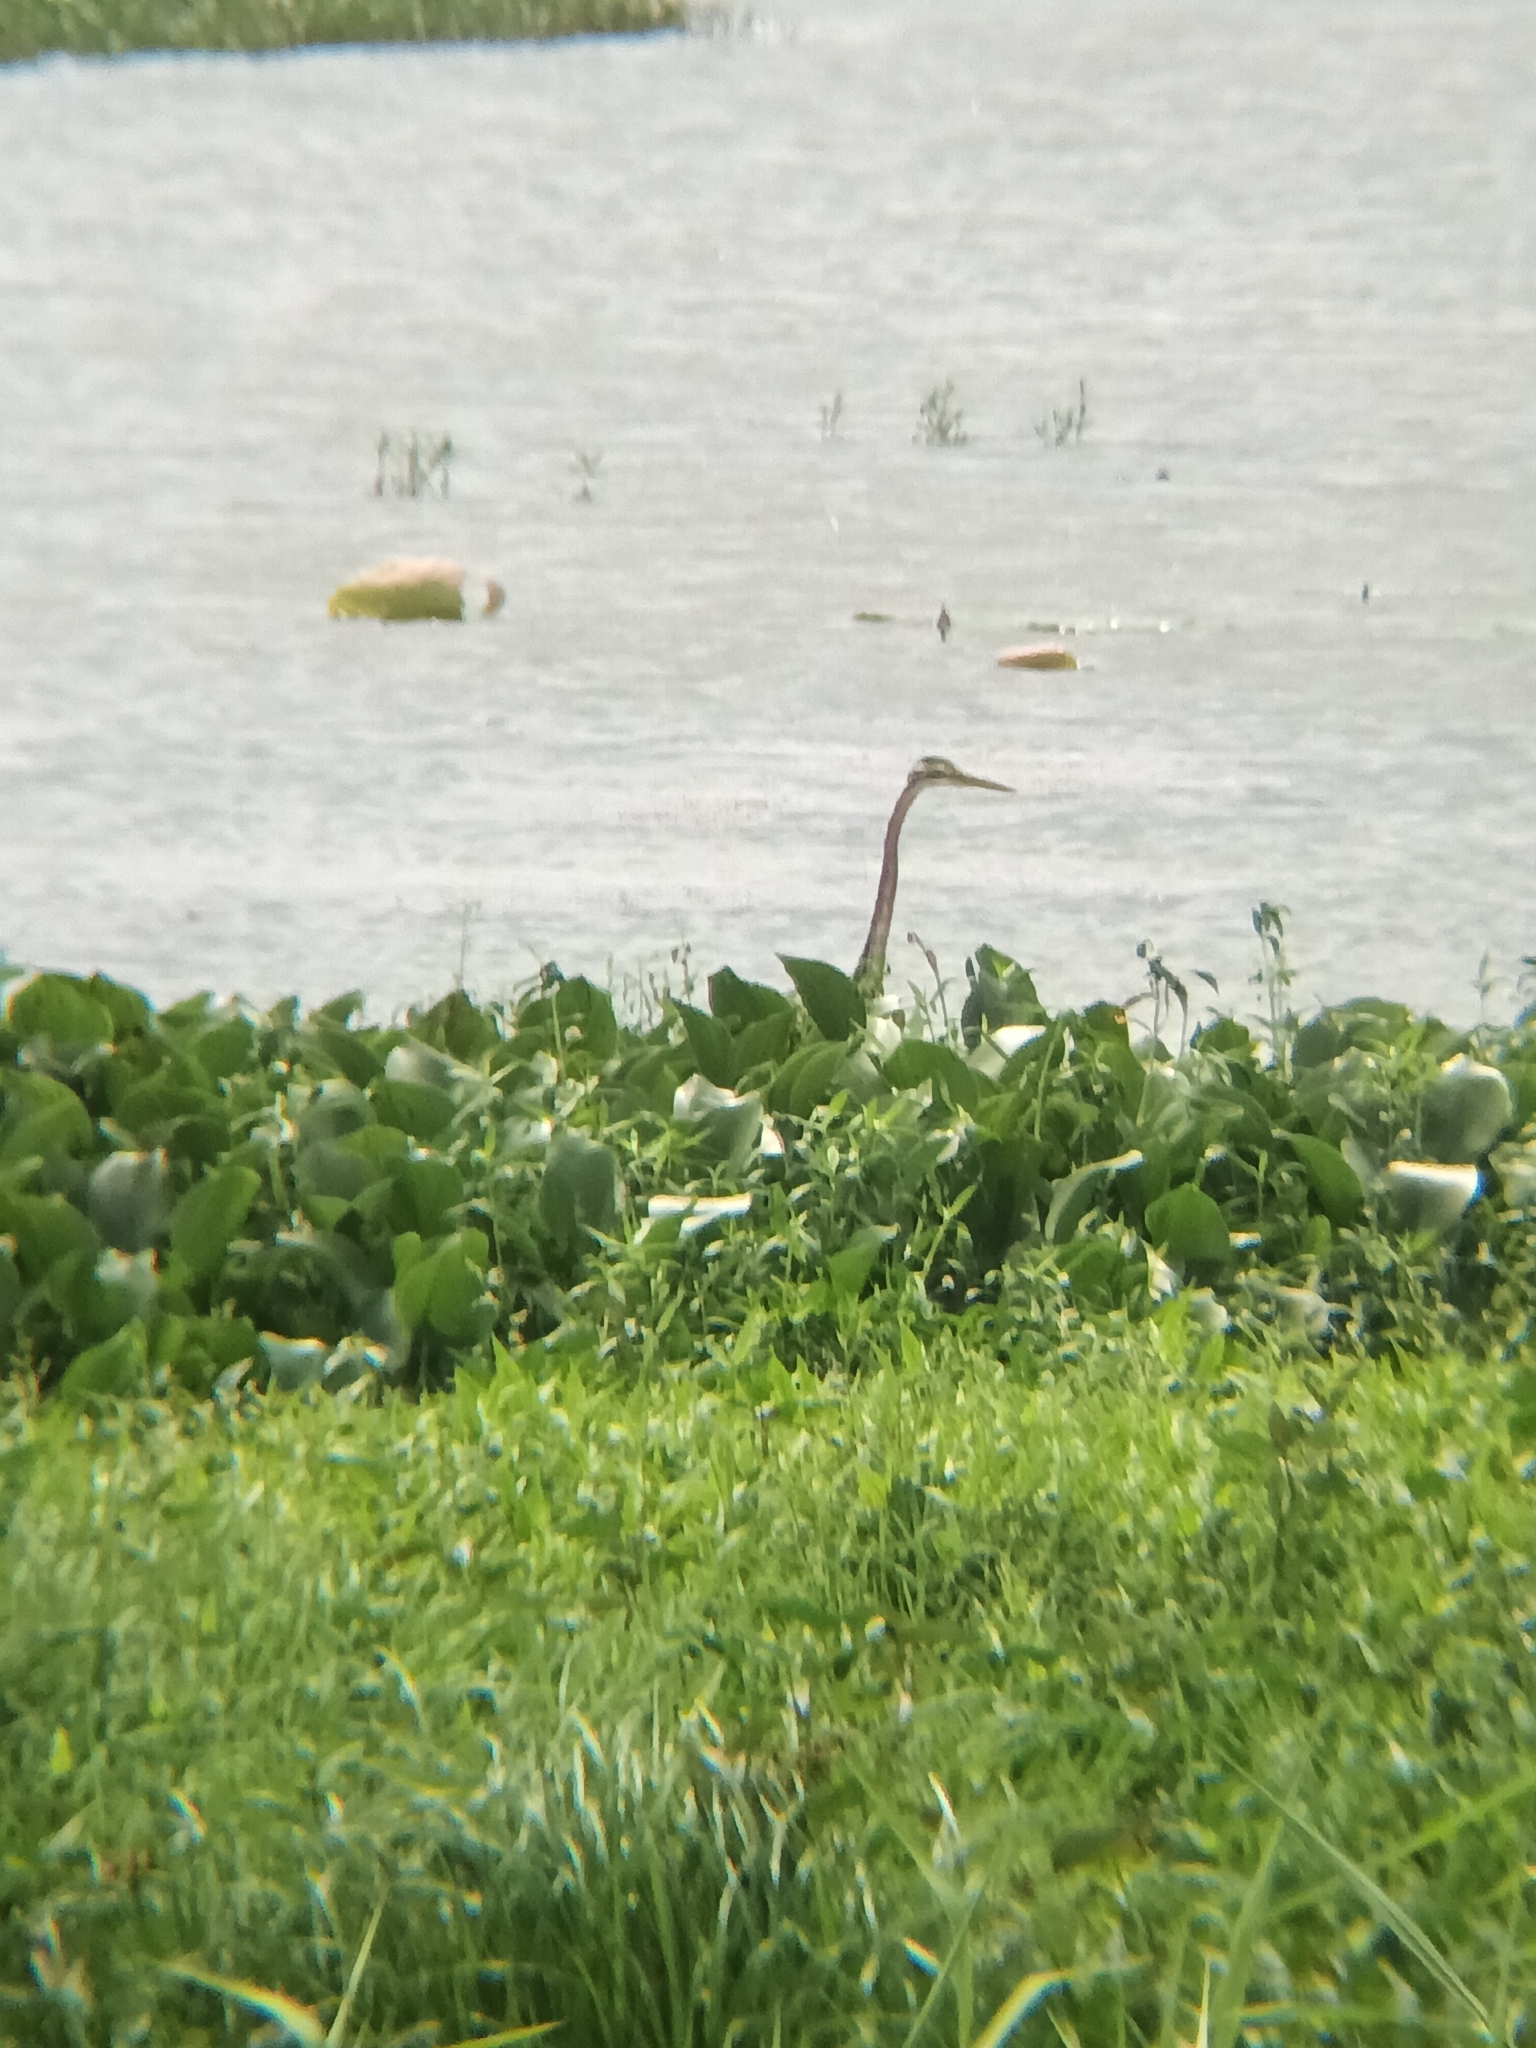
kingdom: Animalia
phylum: Chordata
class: Aves
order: Pelecaniformes
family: Ardeidae
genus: Ardea
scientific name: Ardea purpurea
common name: Purple heron
